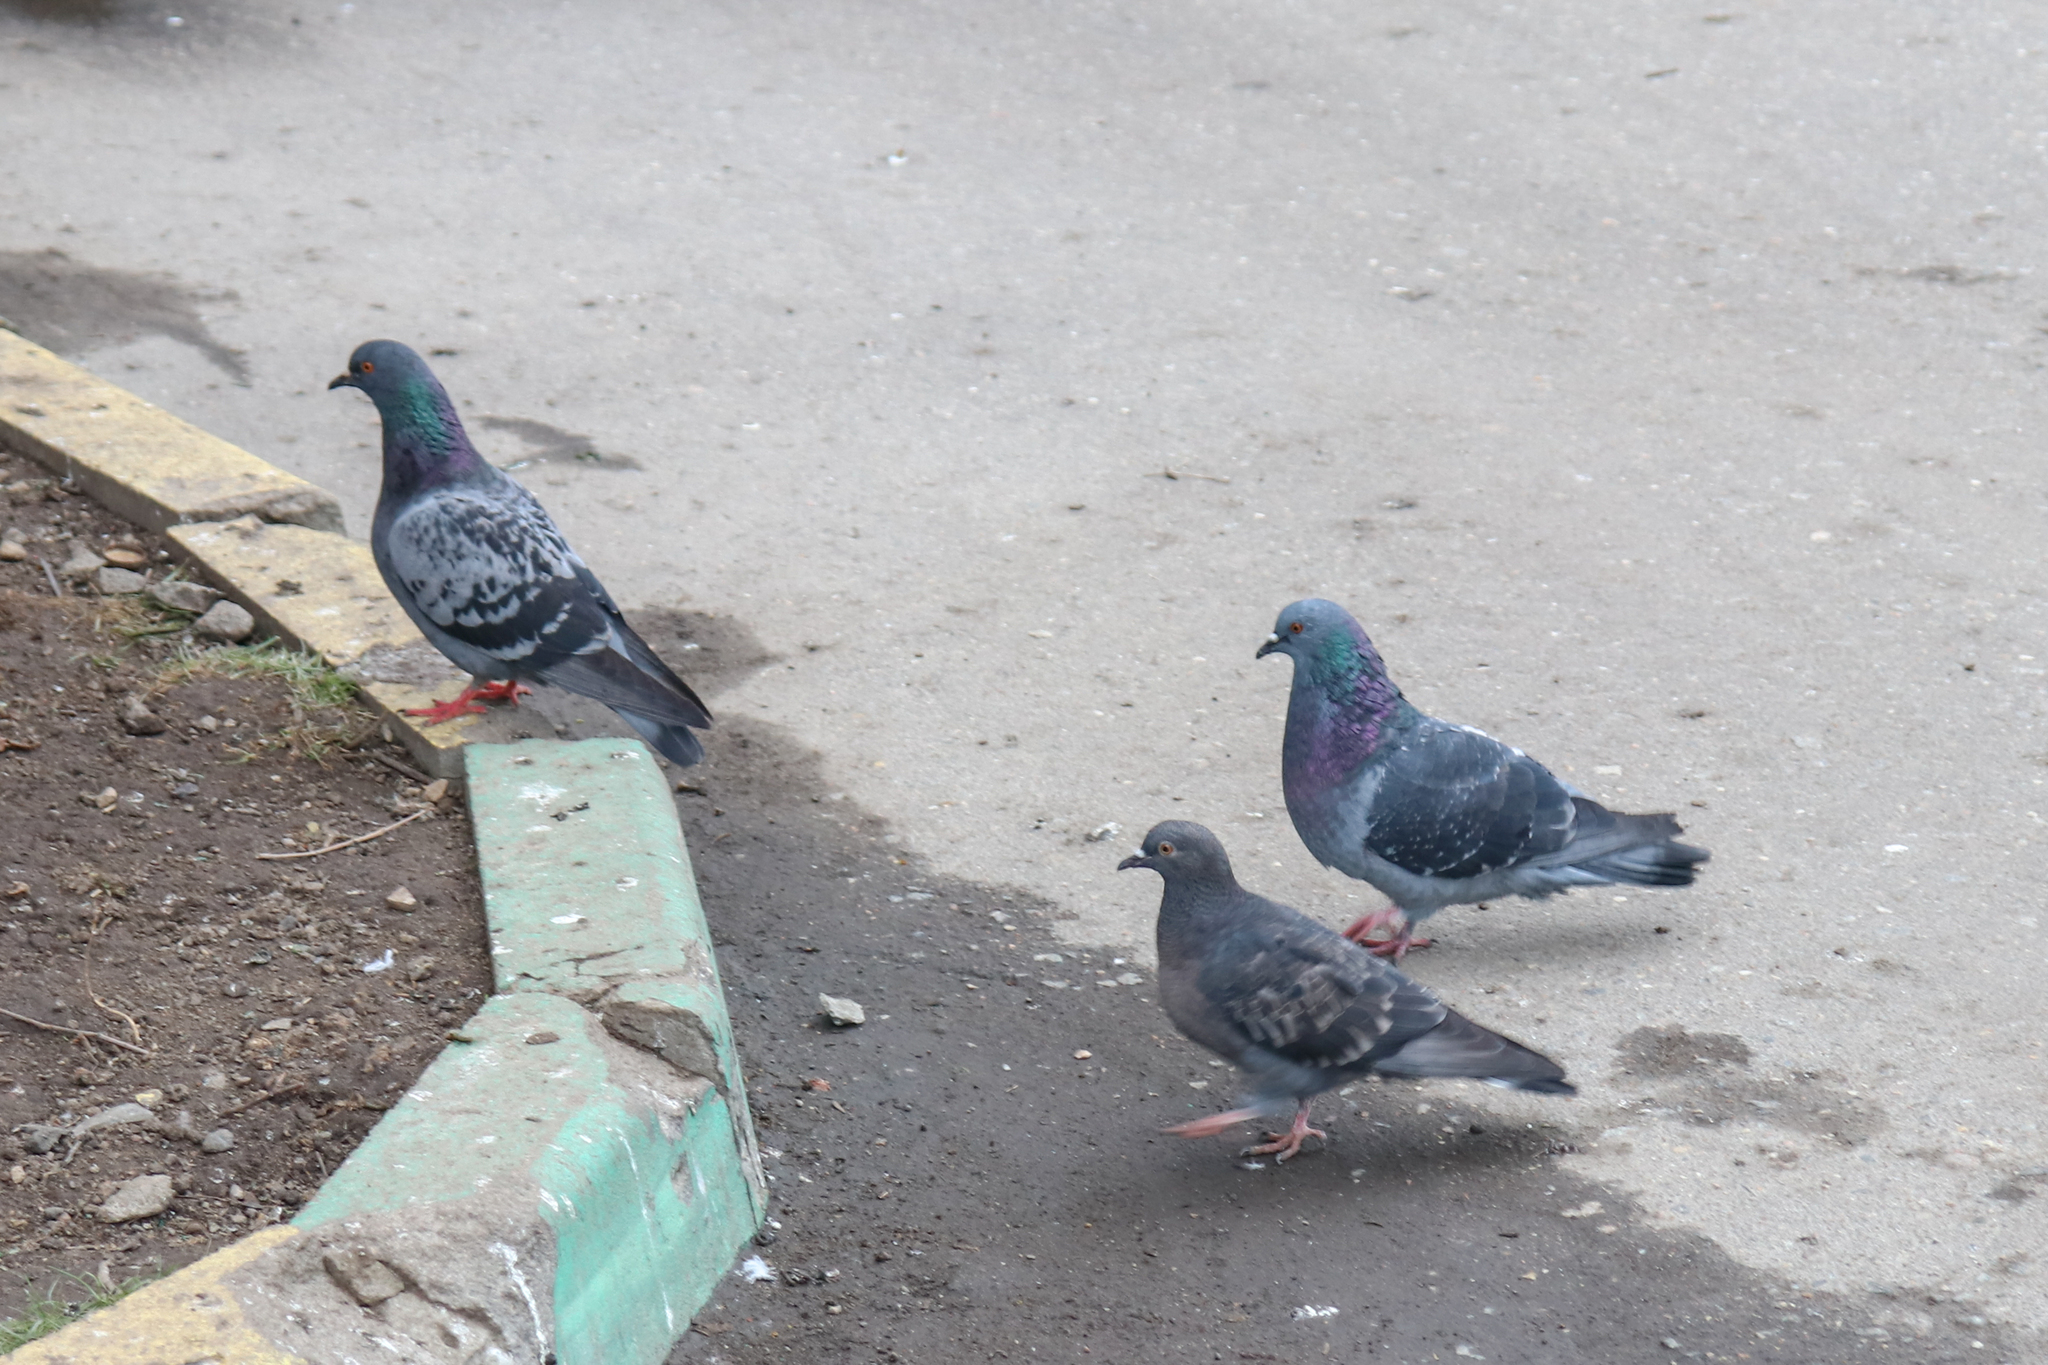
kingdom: Animalia
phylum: Chordata
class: Aves
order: Columbiformes
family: Columbidae
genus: Columba
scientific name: Columba livia
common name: Rock pigeon
